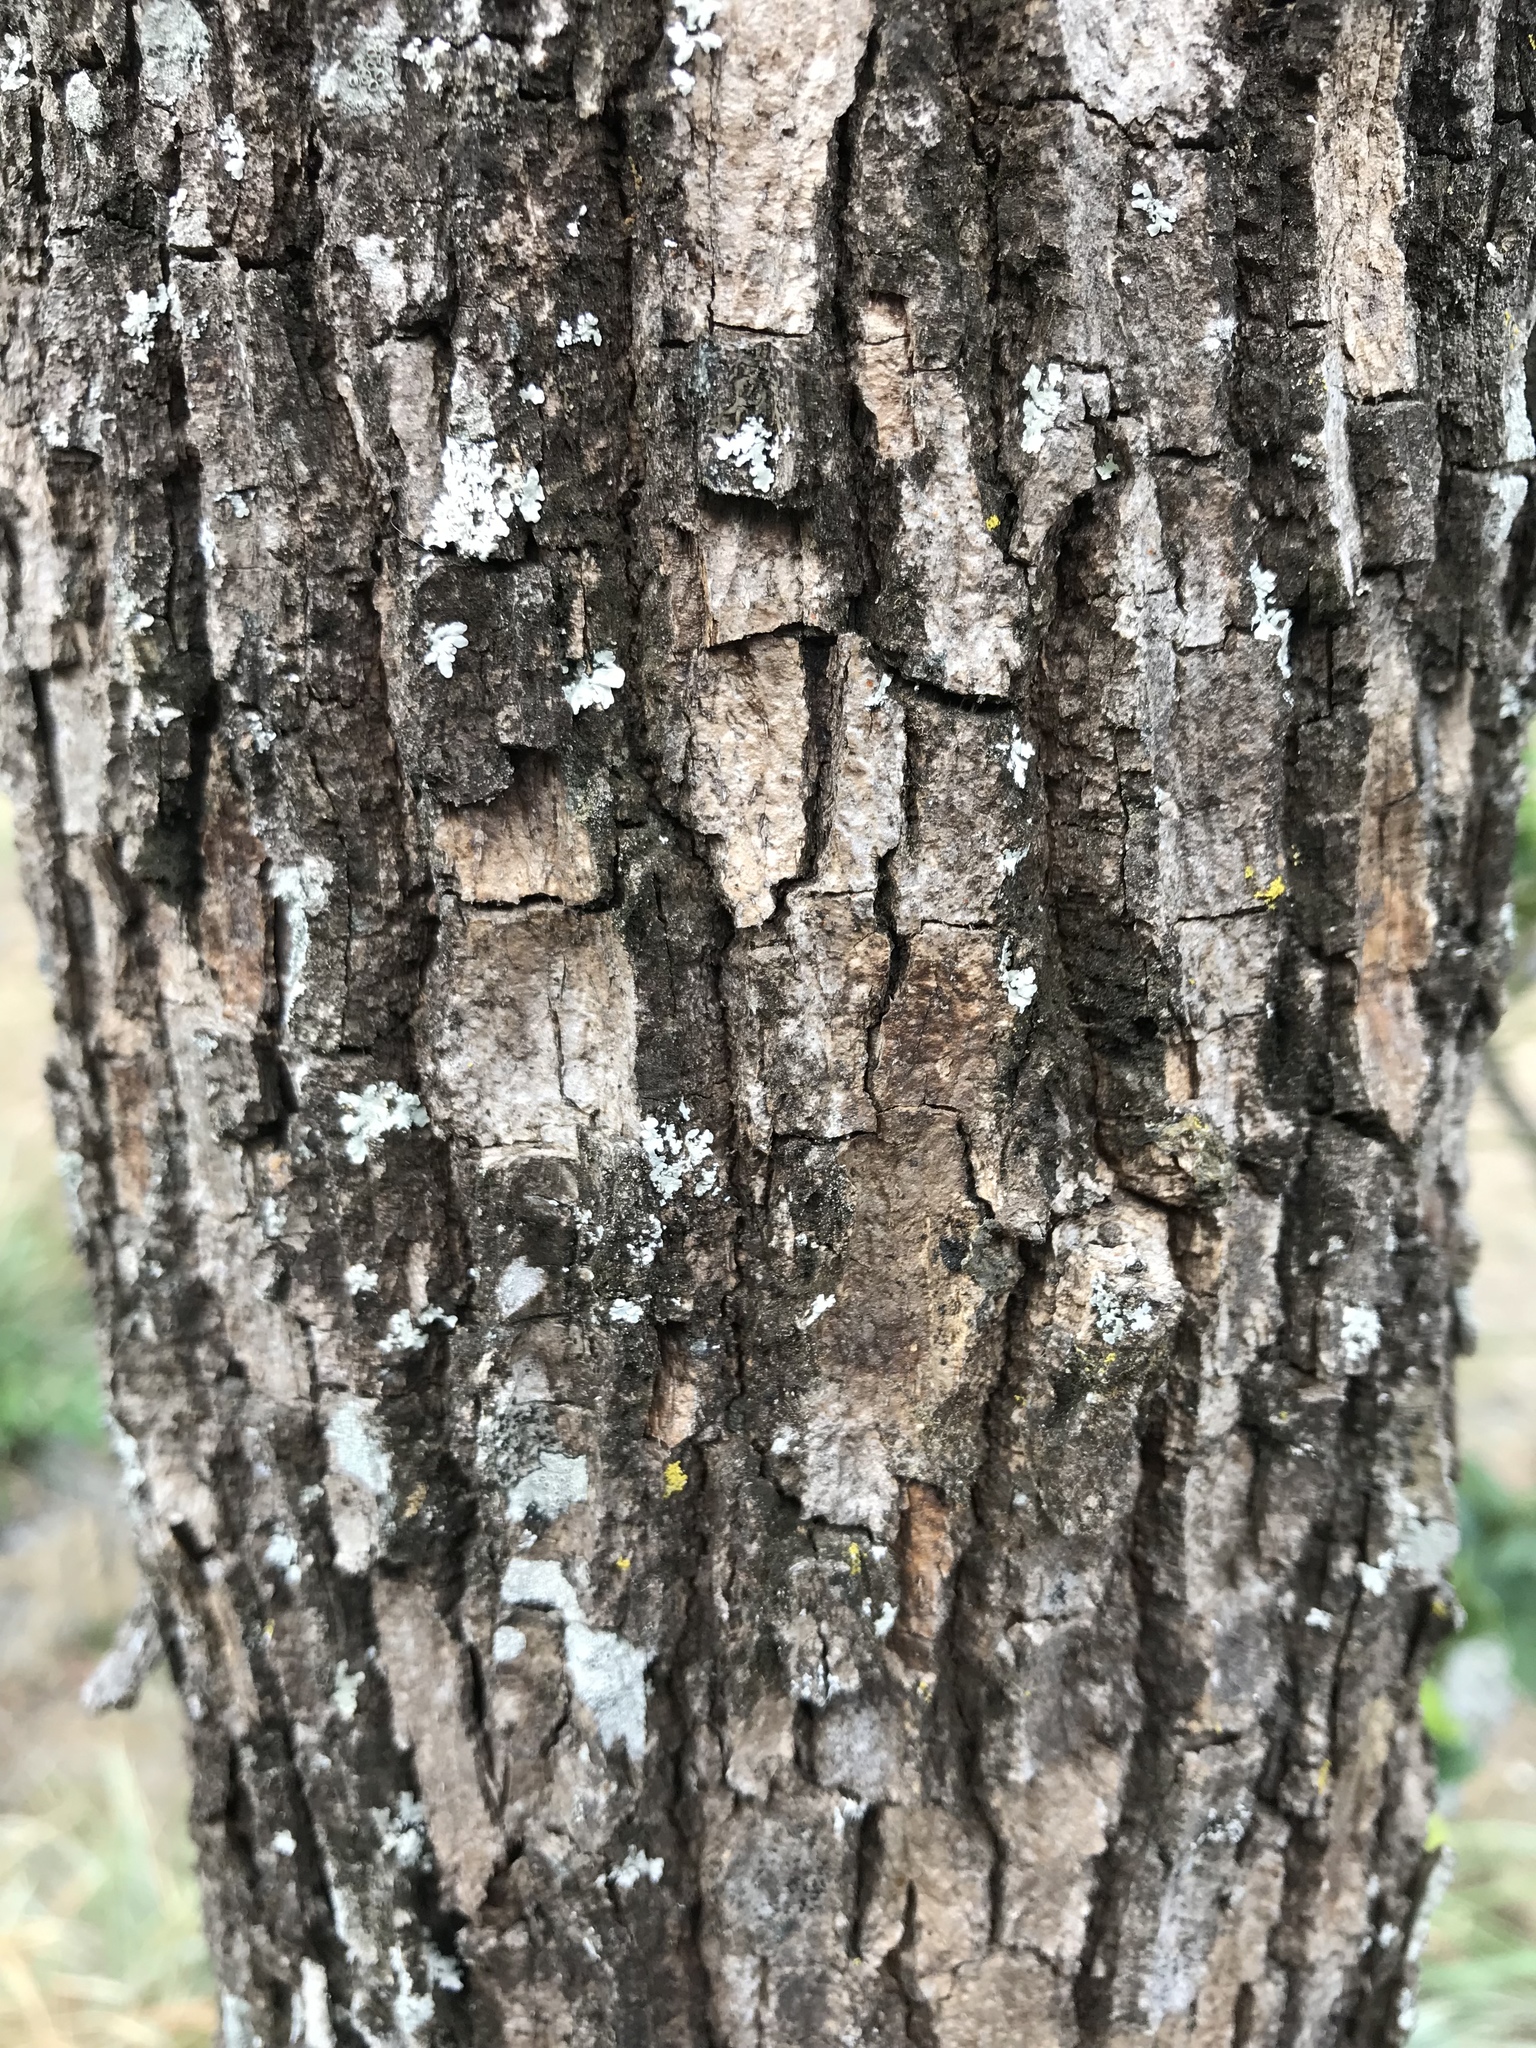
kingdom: Plantae
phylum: Tracheophyta
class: Magnoliopsida
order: Boraginales
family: Cordiaceae
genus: Cordia
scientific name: Cordia alliodora
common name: Spanish elm
